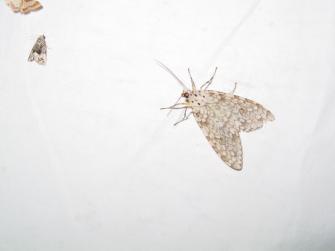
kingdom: Animalia
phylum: Arthropoda
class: Insecta
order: Lepidoptera
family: Erebidae
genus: Carales
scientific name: Carales arizonensis
